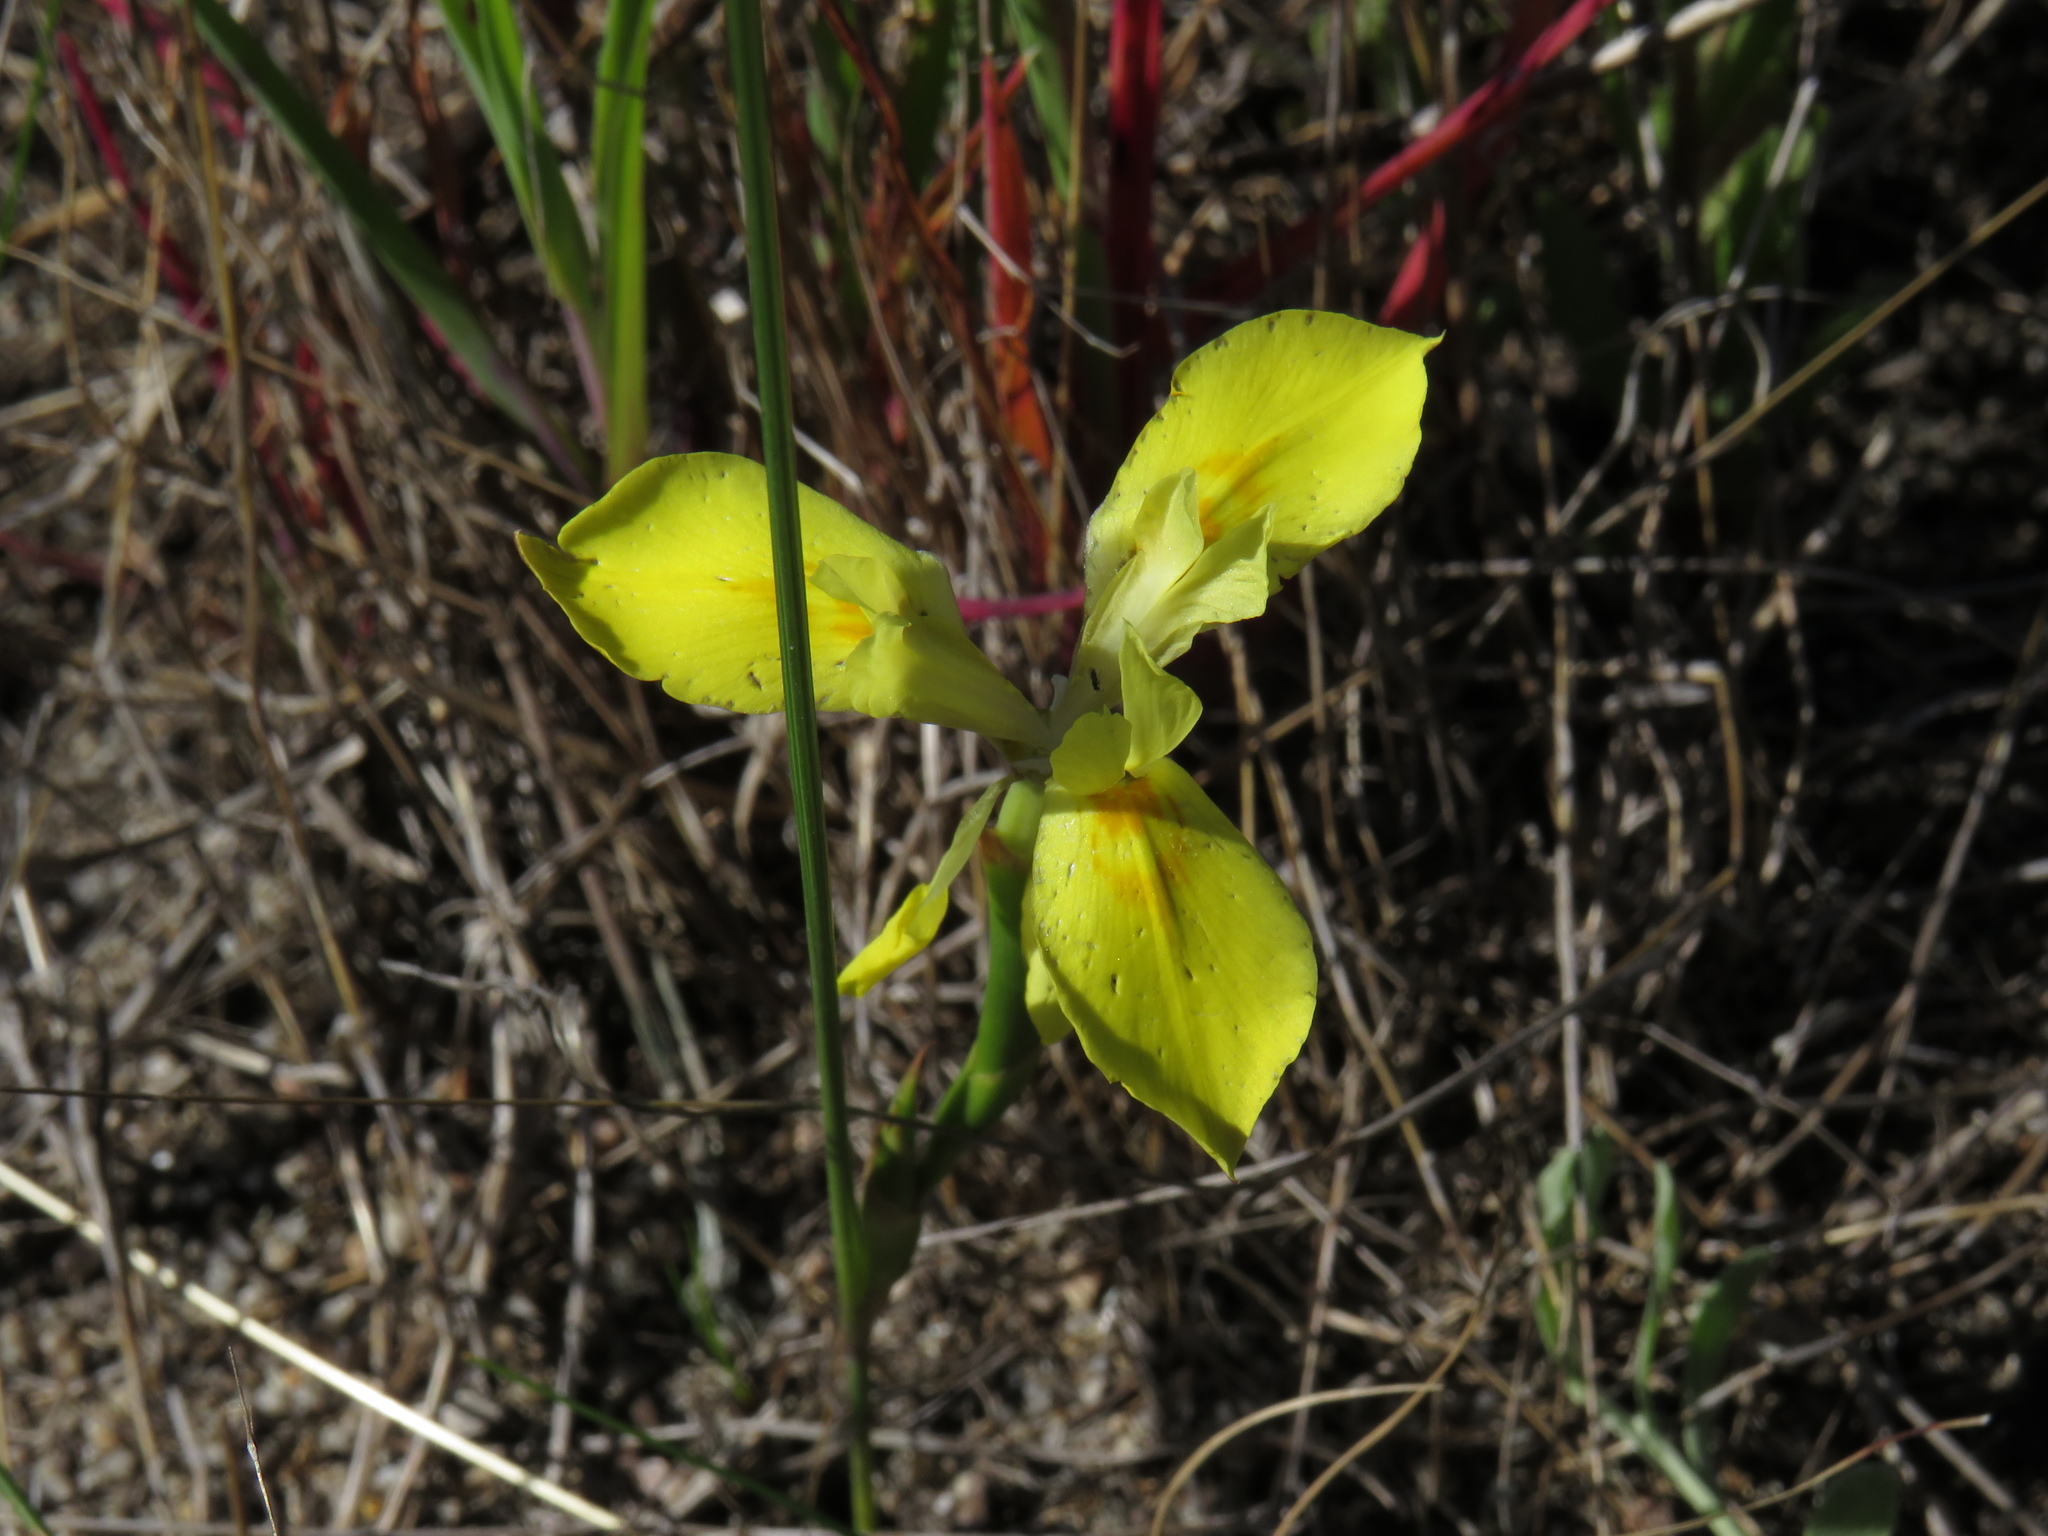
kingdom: Plantae
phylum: Tracheophyta
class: Liliopsida
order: Asparagales
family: Iridaceae
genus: Moraea
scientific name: Moraea fugax
